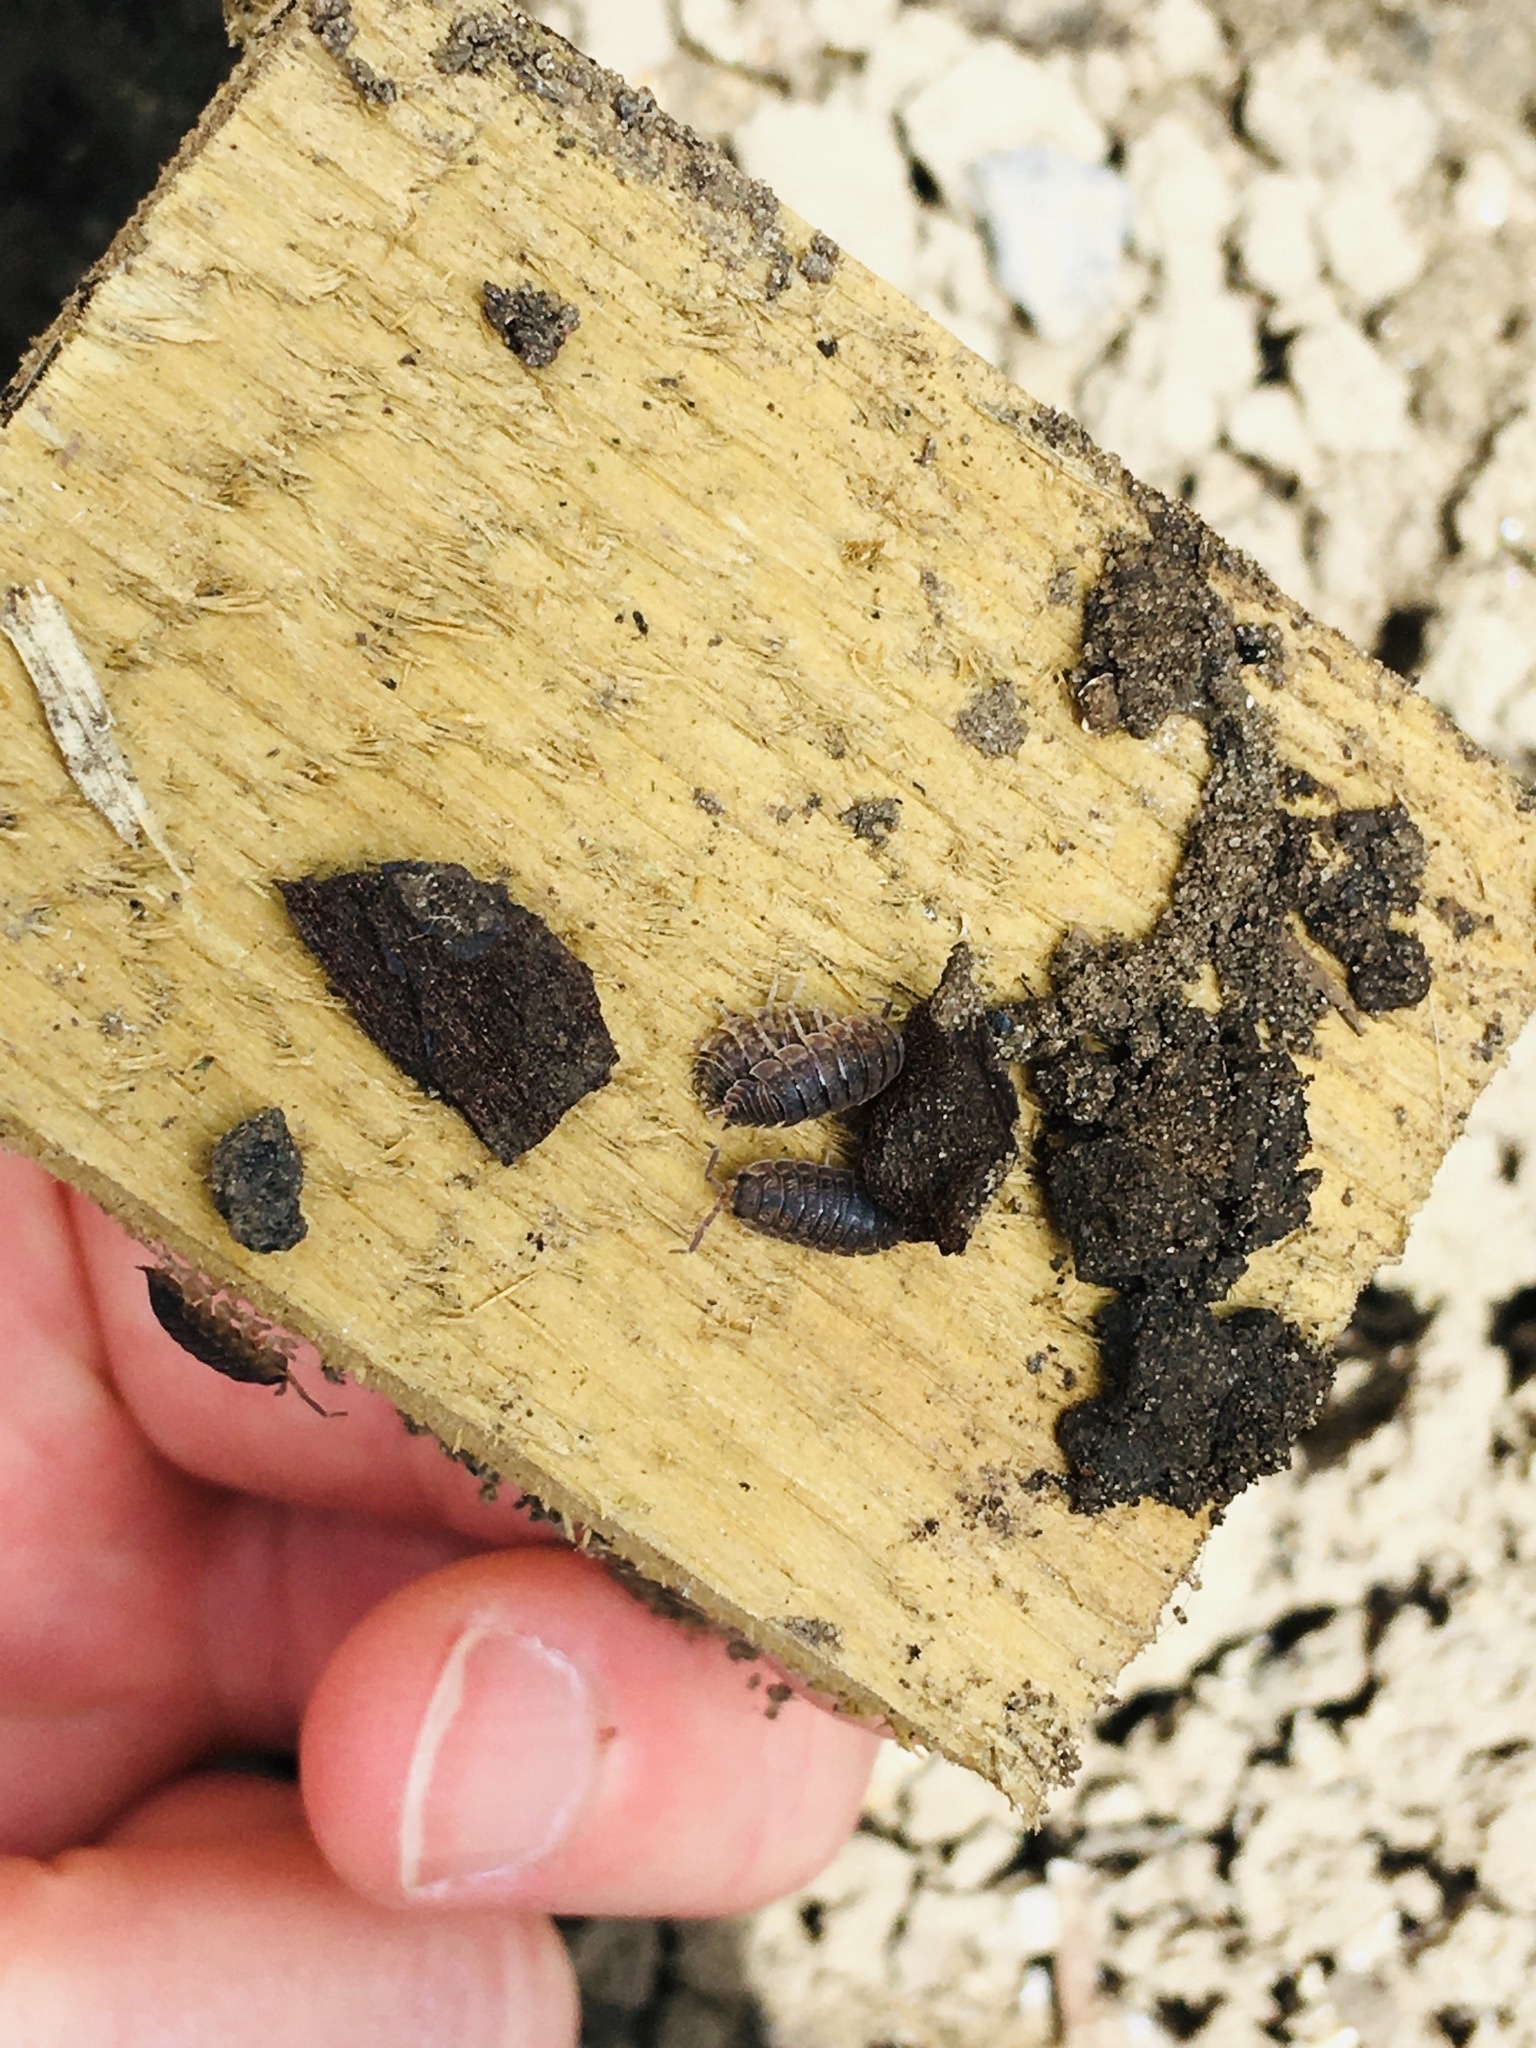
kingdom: Animalia
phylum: Arthropoda
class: Malacostraca
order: Isopoda
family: Porcellionidae
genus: Porcellio
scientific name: Porcellio scaber
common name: Common rough woodlouse
